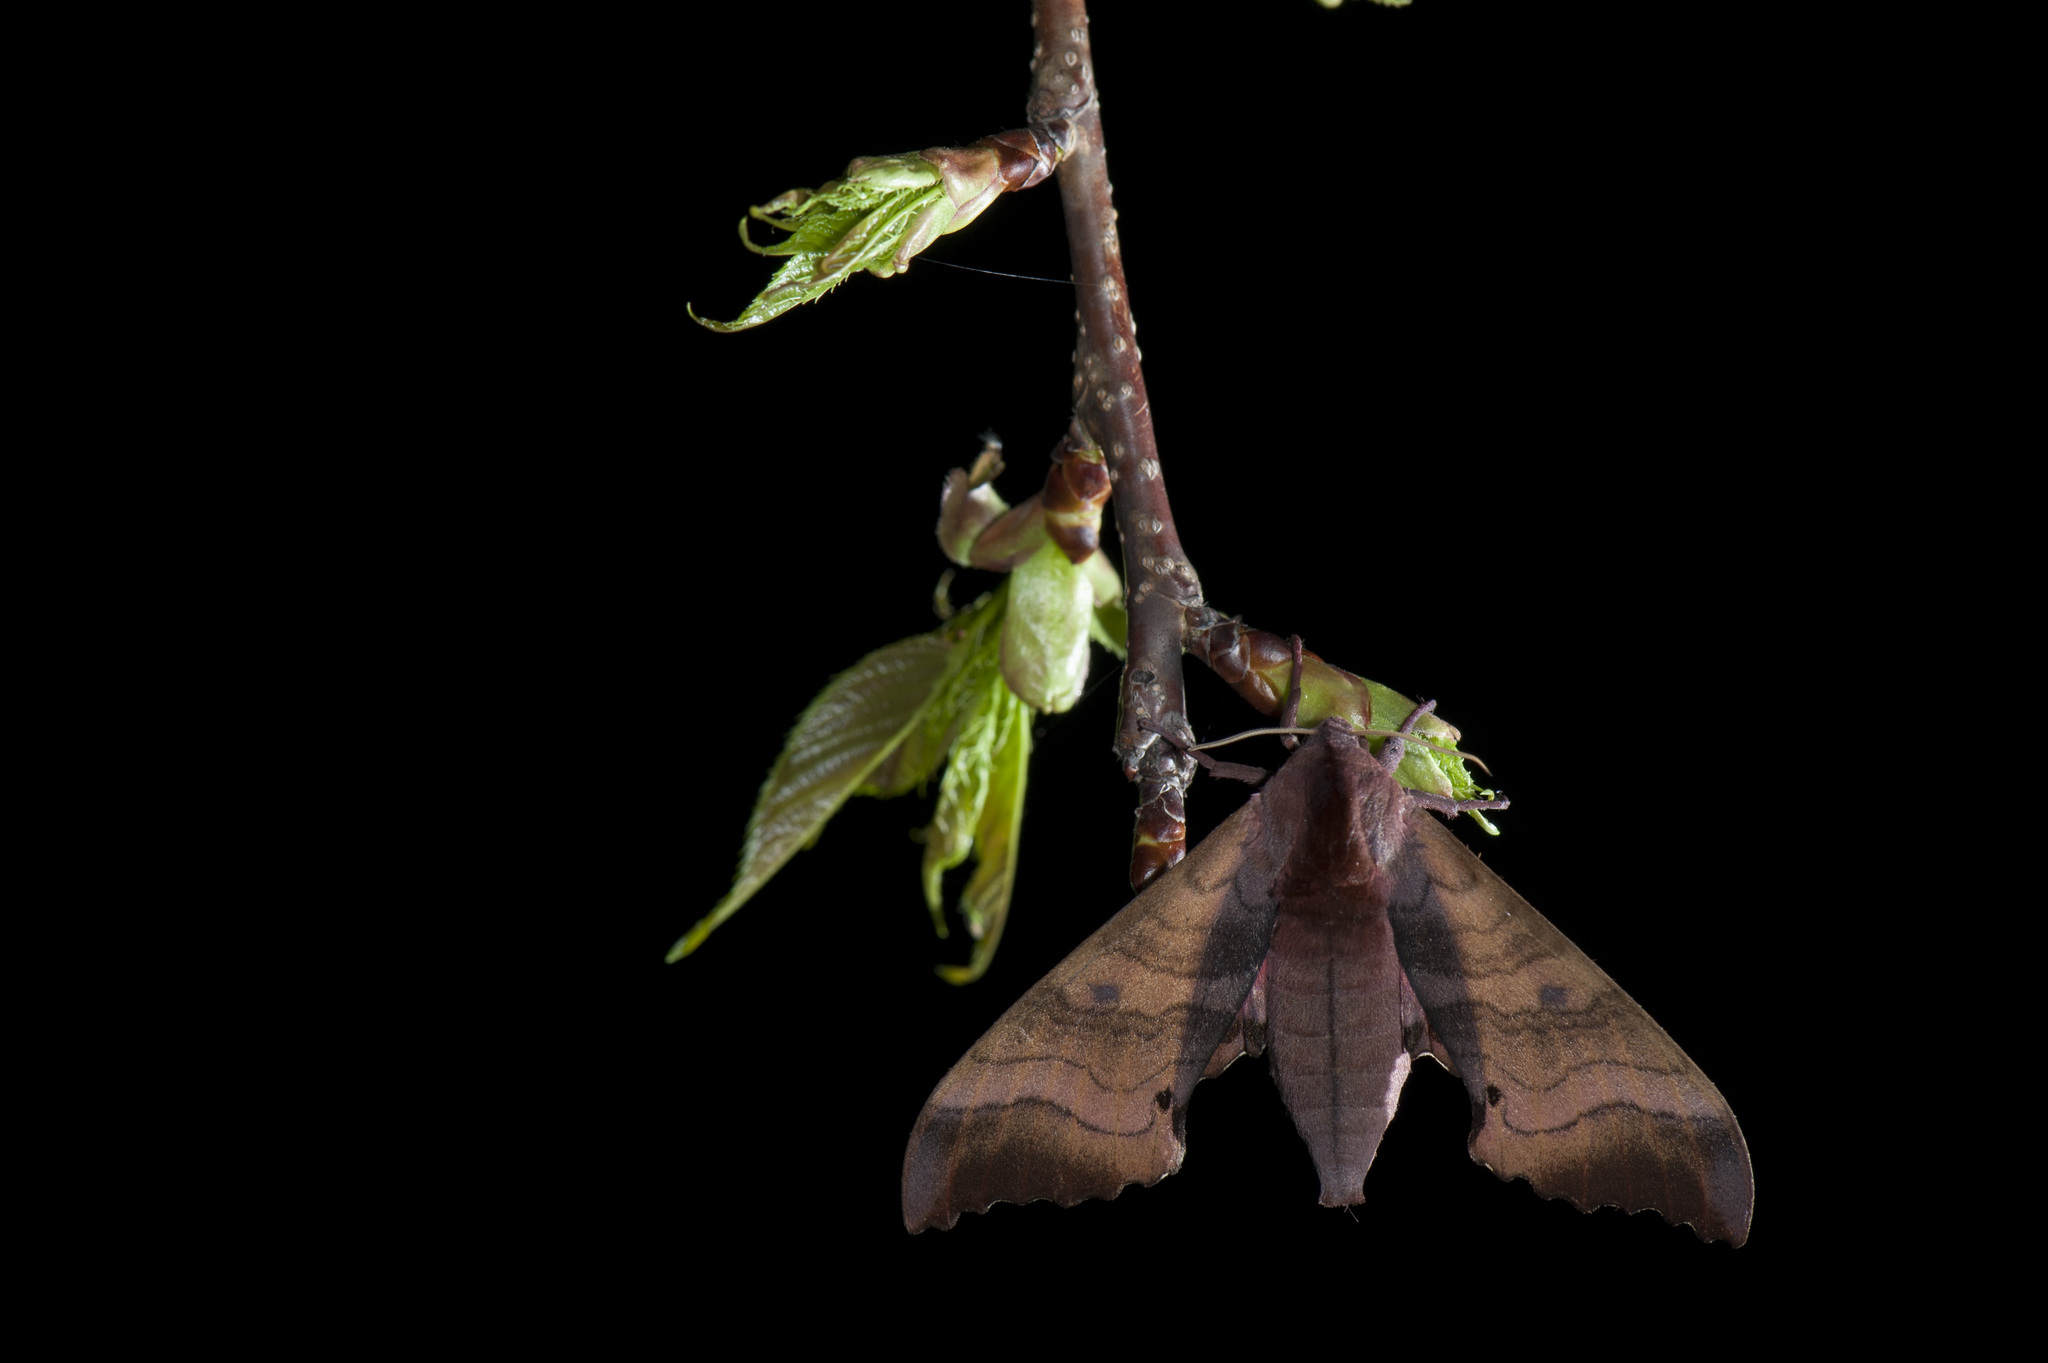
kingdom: Animalia
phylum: Arthropoda
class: Insecta
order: Lepidoptera
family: Sphingidae
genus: Marumba
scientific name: Marumba gaschkewitschii
